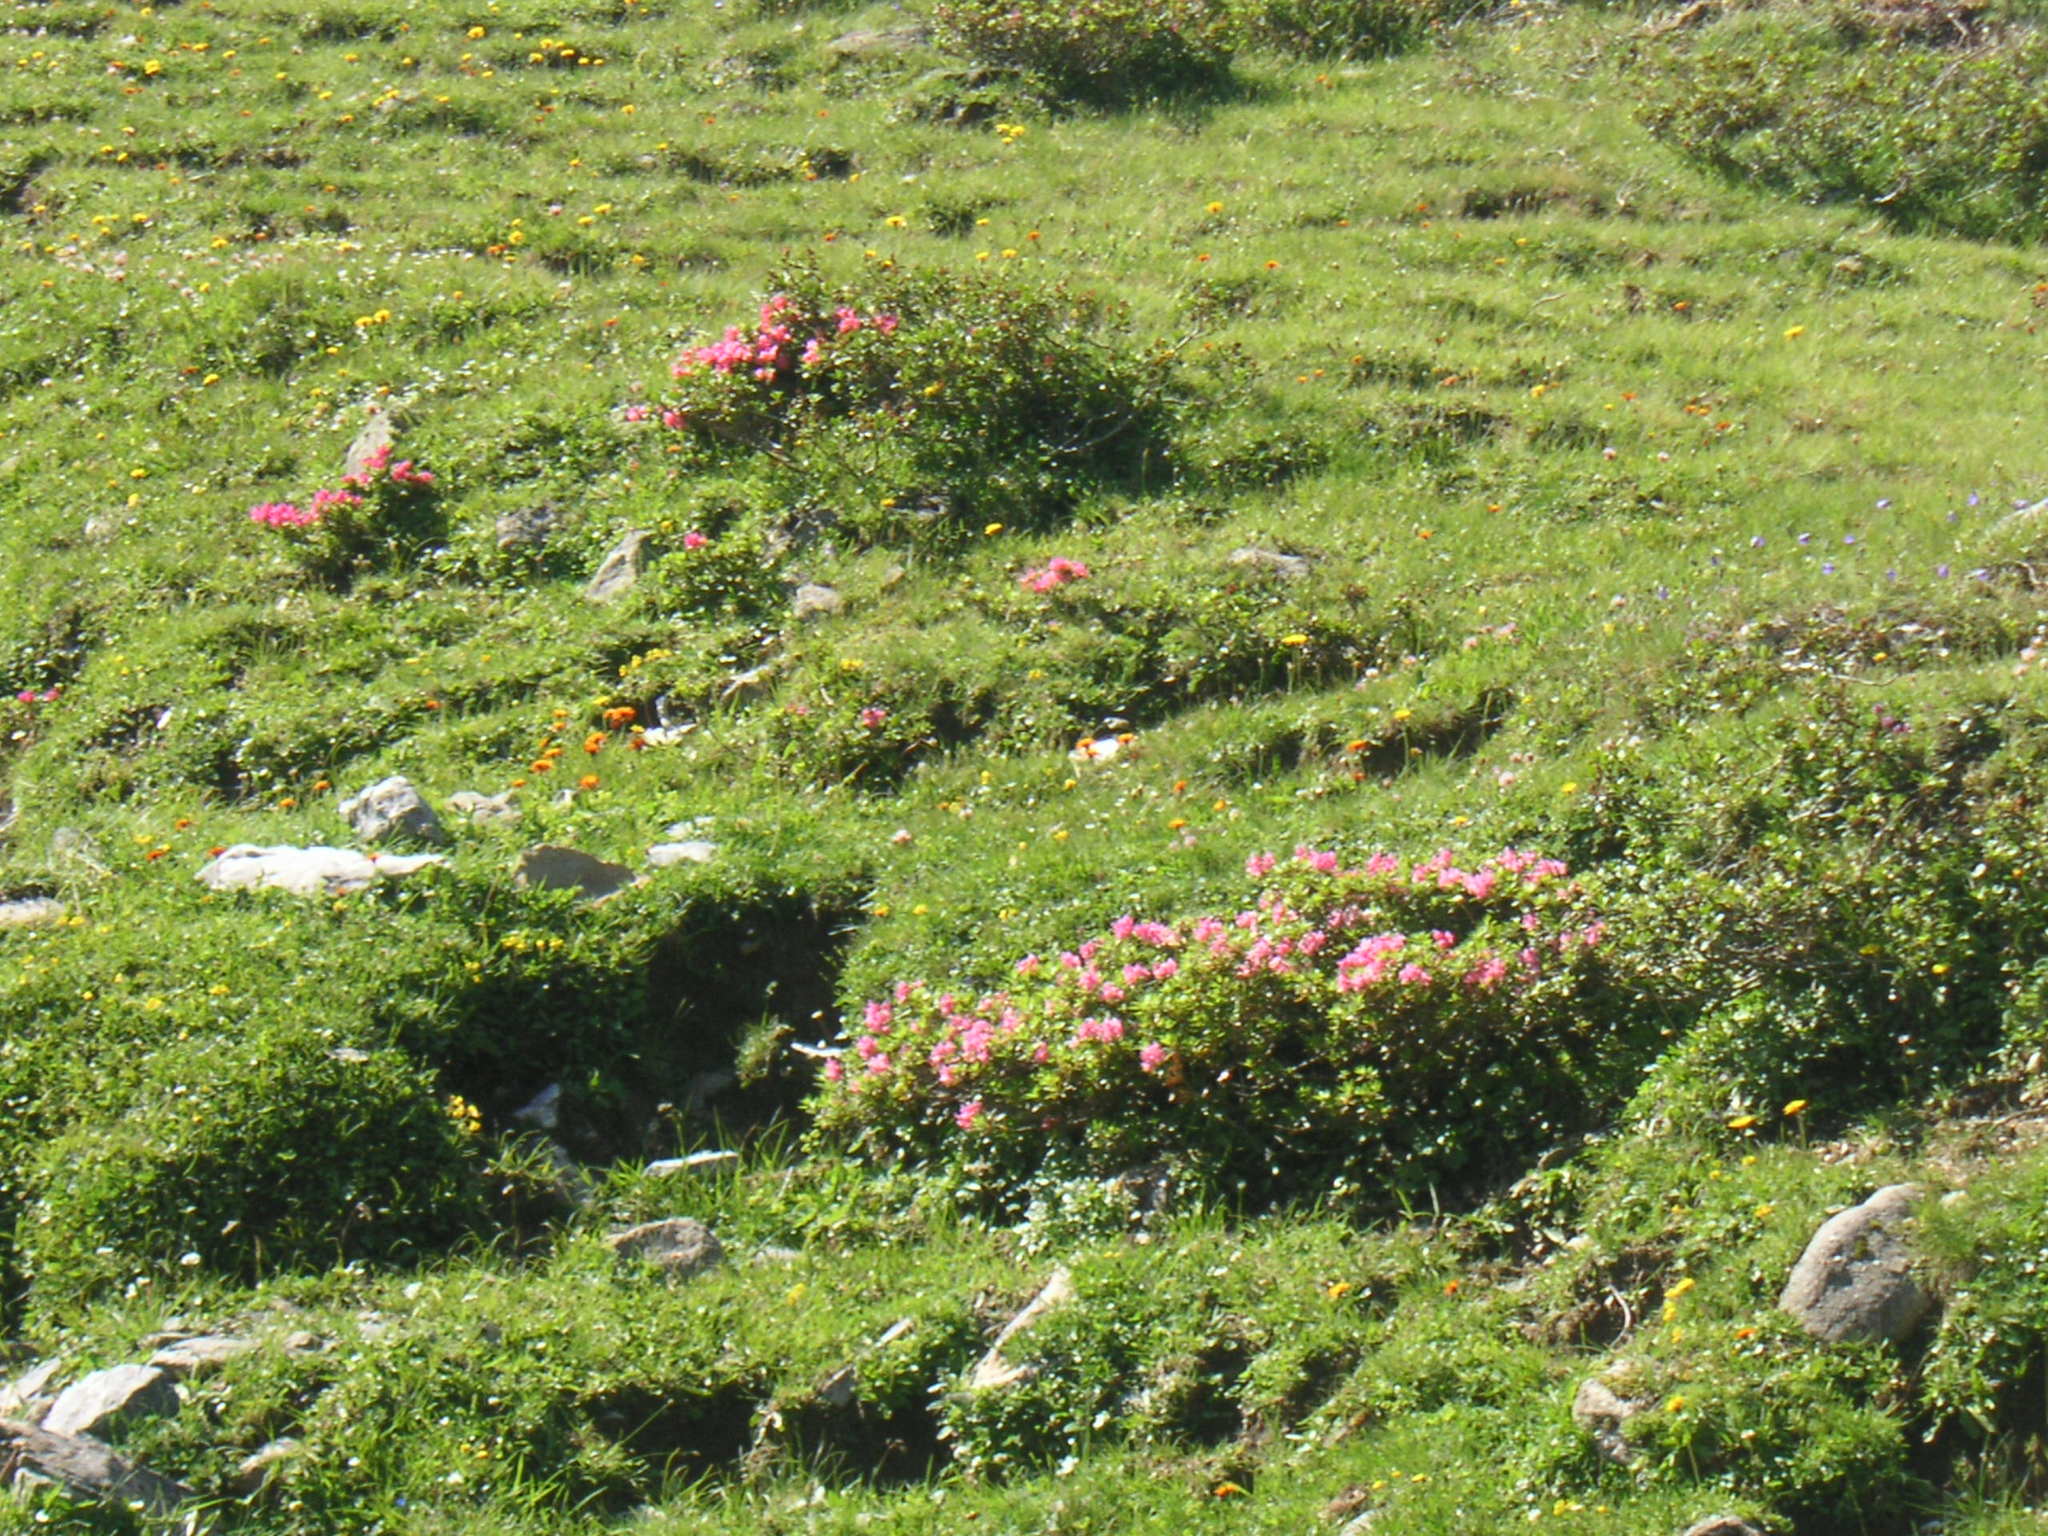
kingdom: Plantae
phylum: Tracheophyta
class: Magnoliopsida
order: Ericales
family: Ericaceae
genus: Rhododendron
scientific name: Rhododendron hirsutum
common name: Hairy alpenrose
